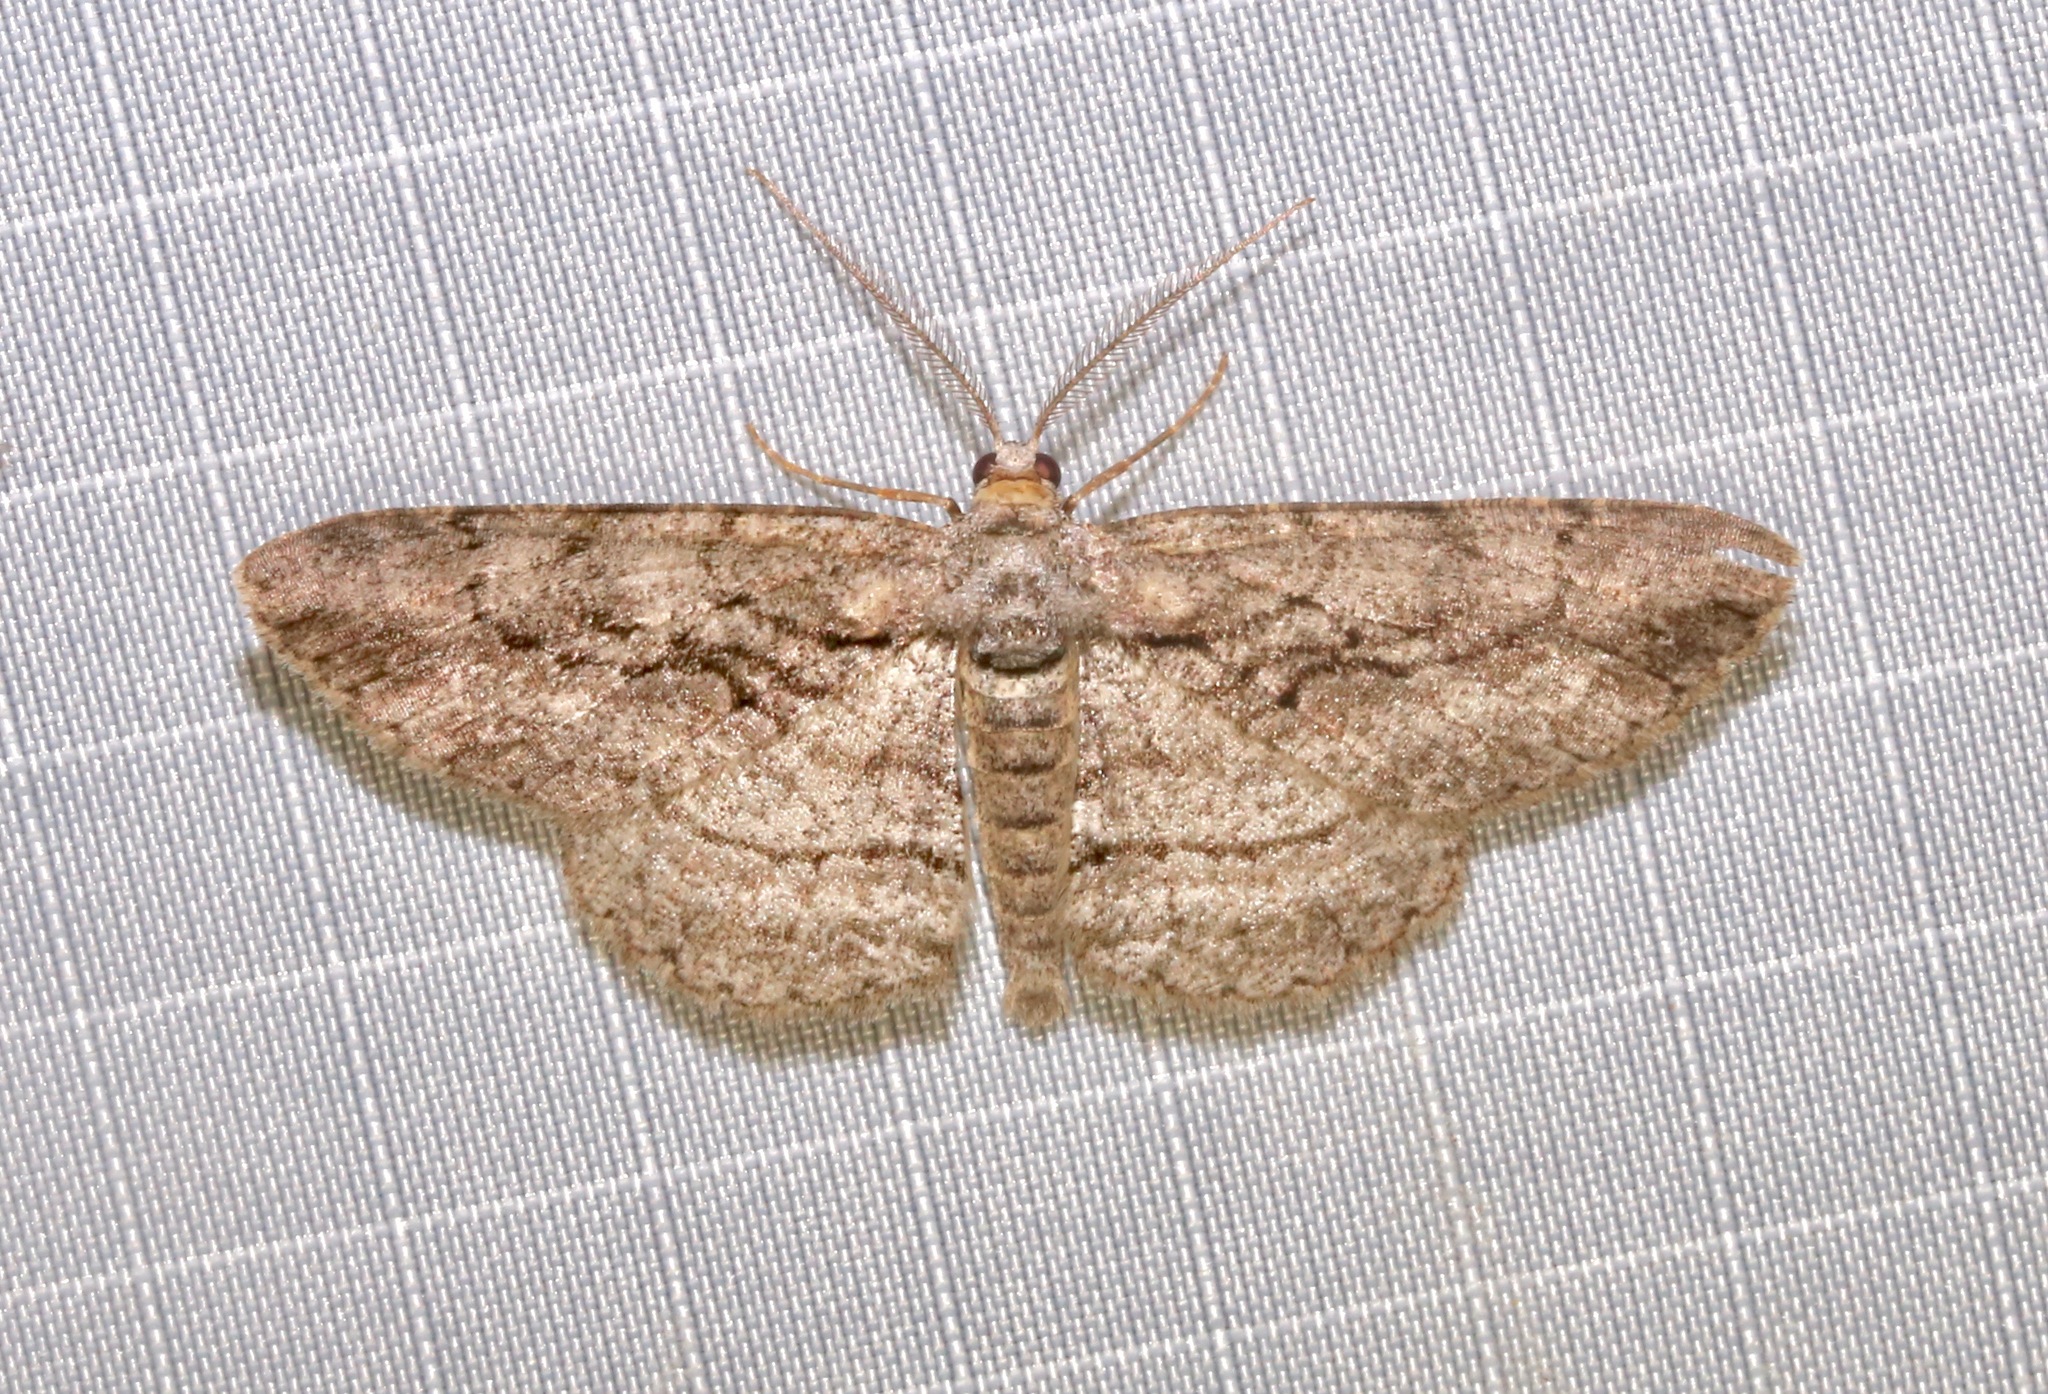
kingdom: Animalia
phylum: Arthropoda
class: Insecta
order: Lepidoptera
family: Geometridae
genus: Anavitrinella
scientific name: Anavitrinella pampinaria
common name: Common gray
